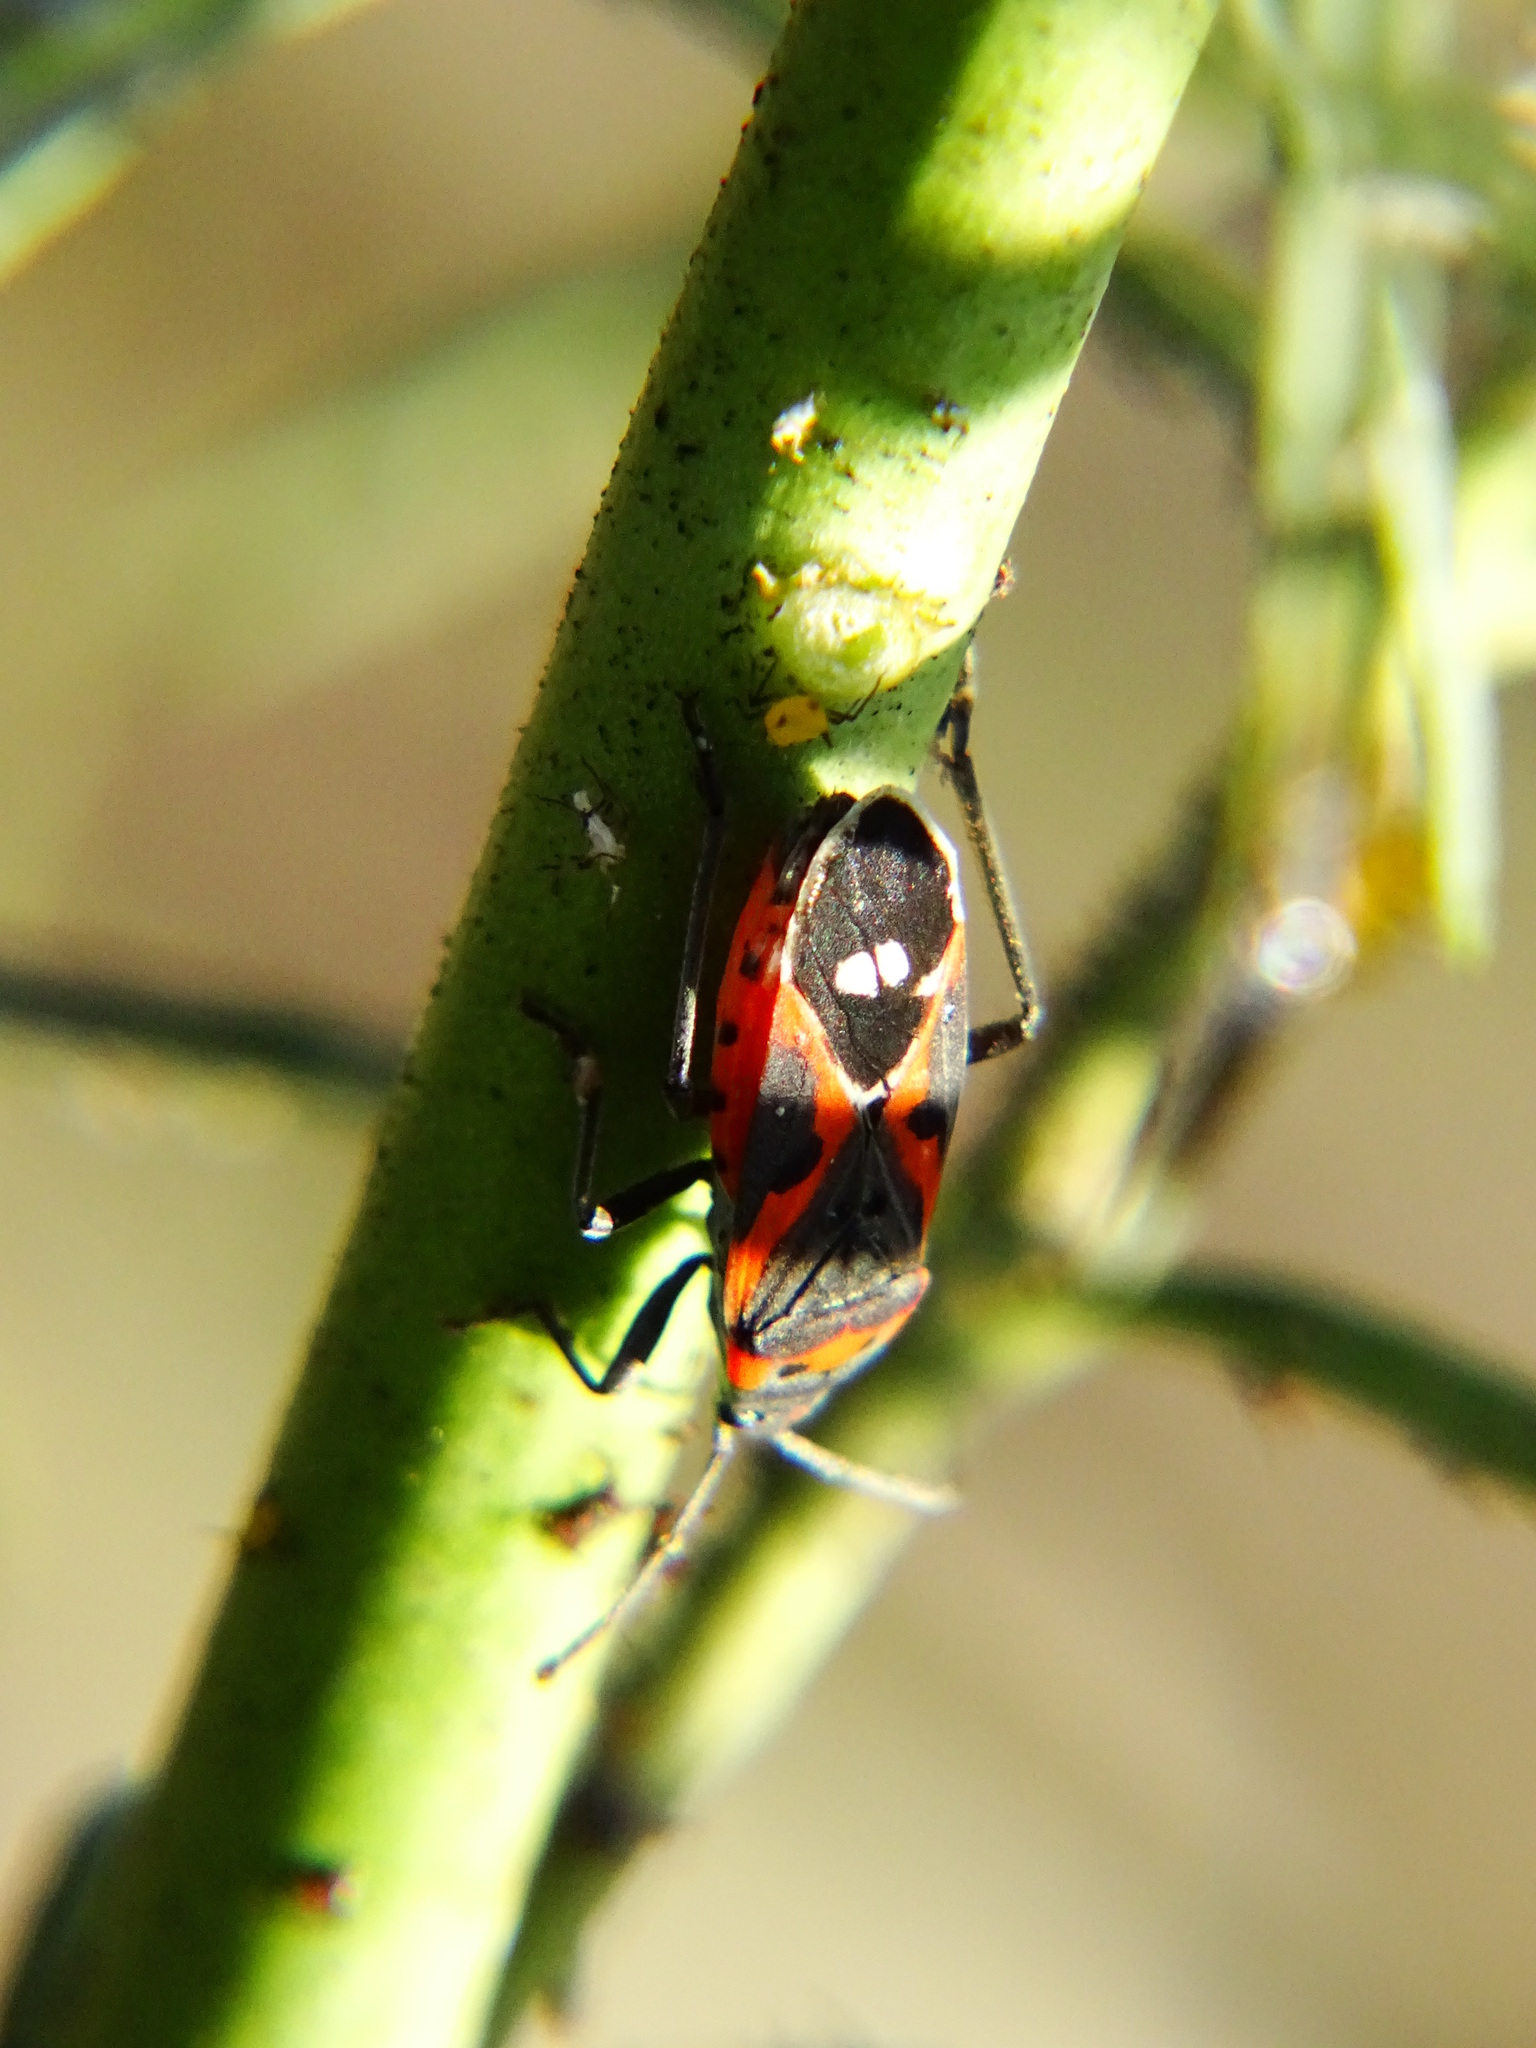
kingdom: Animalia
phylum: Arthropoda
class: Insecta
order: Hemiptera
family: Lygaeidae
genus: Lygaeus
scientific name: Lygaeus kalmii
